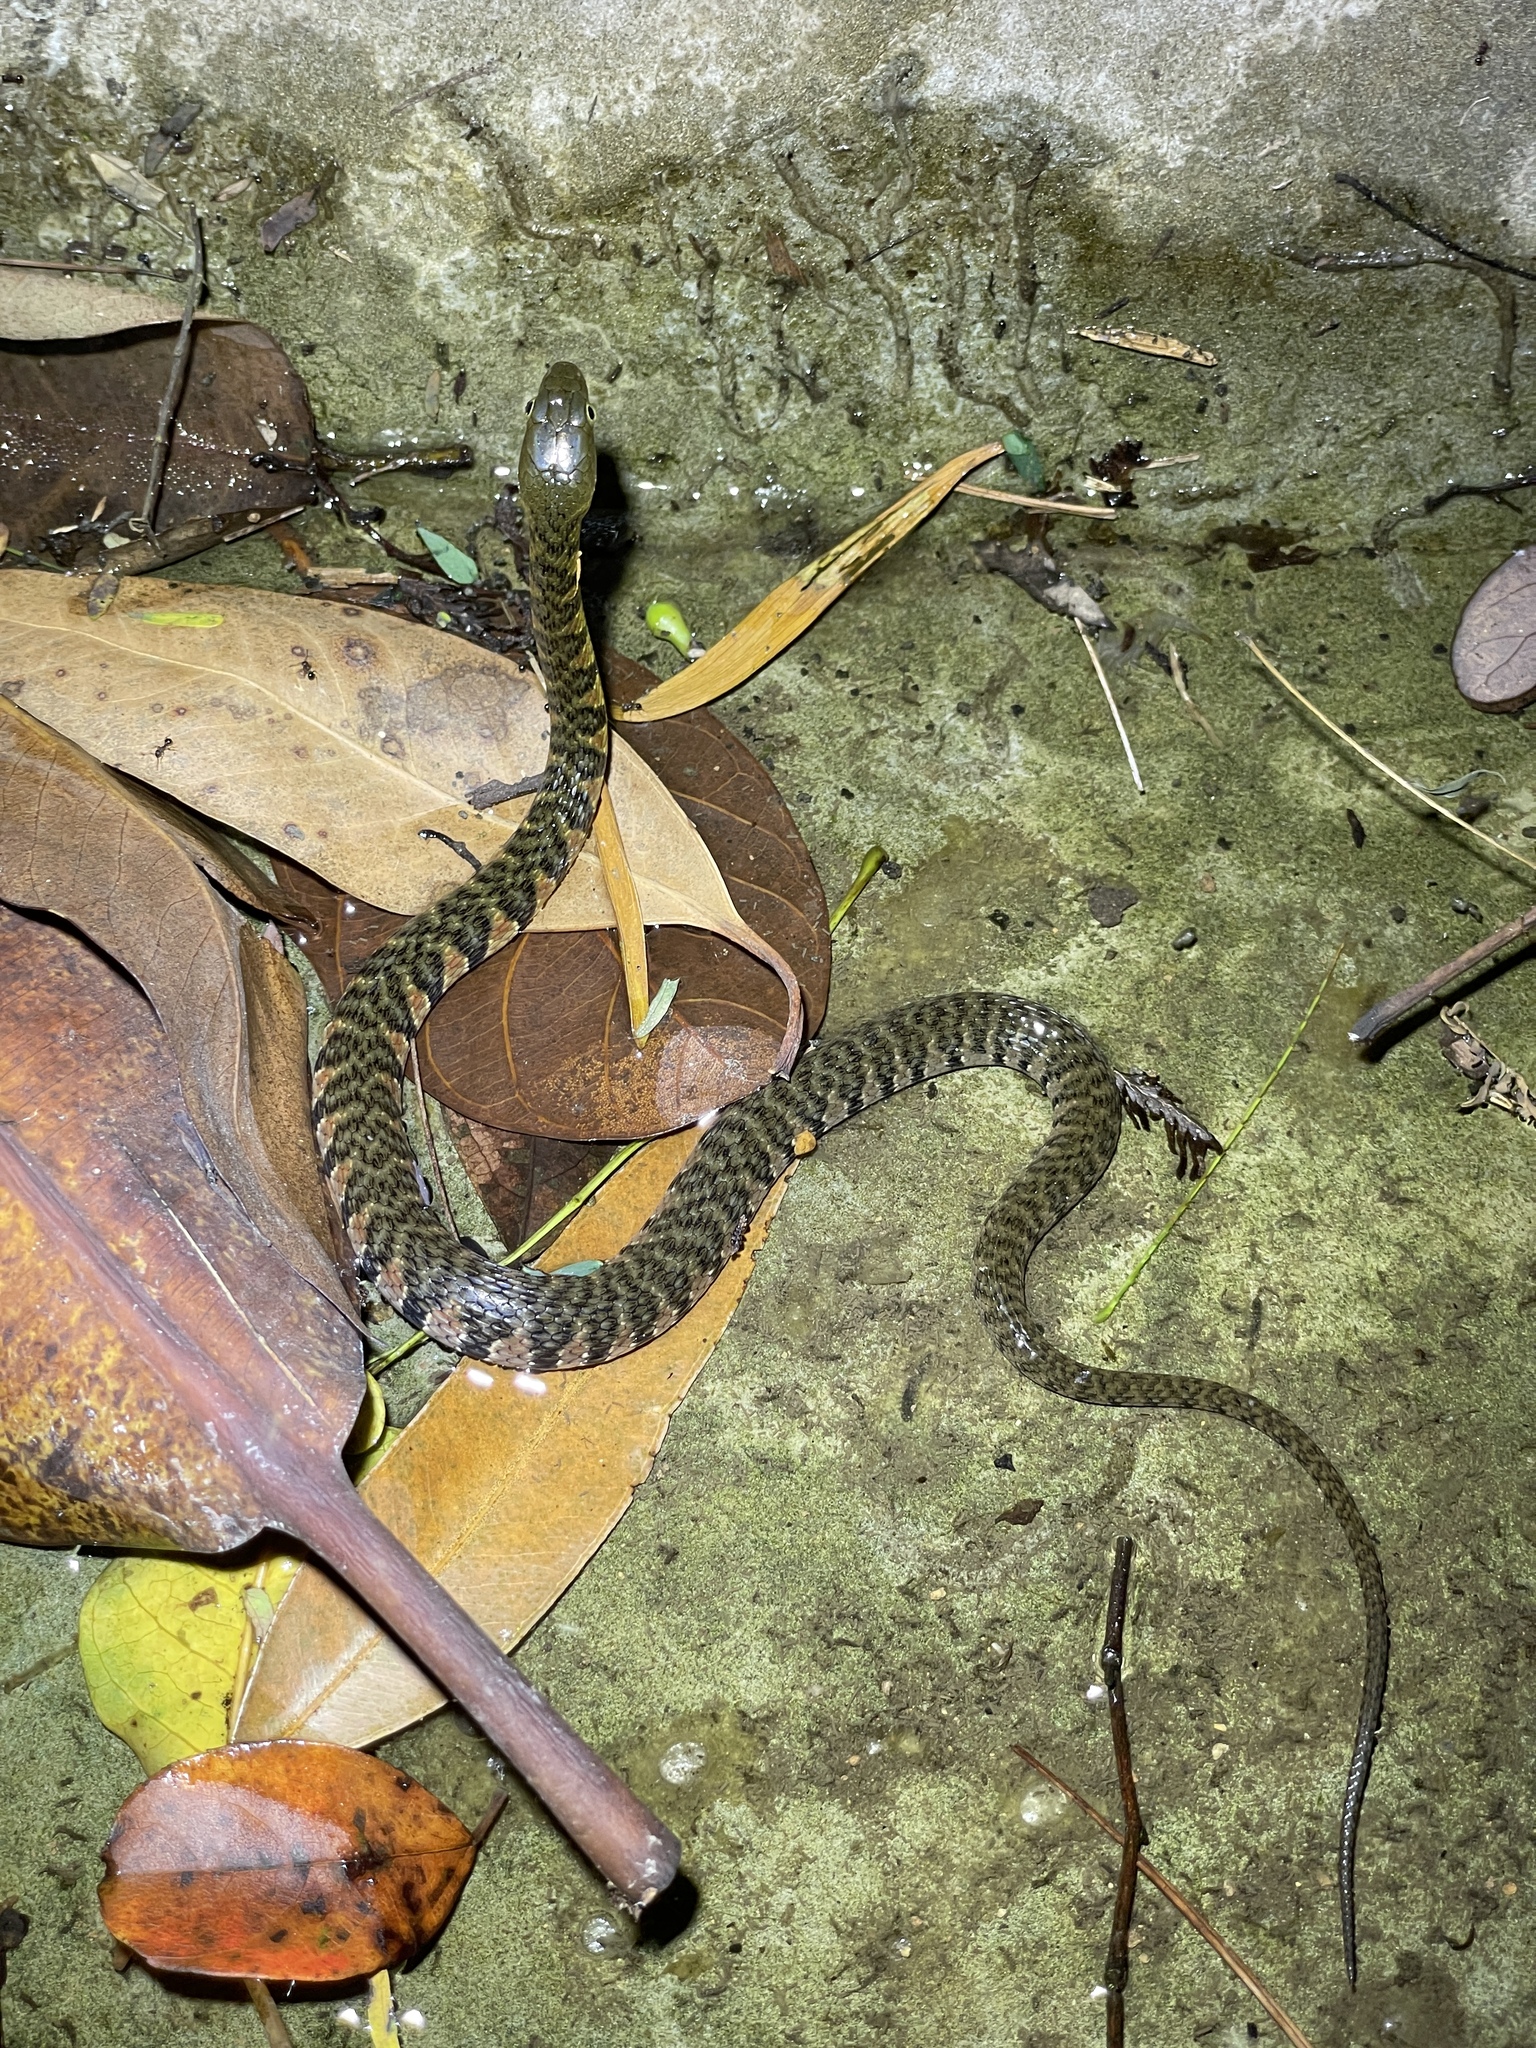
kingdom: Animalia
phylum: Chordata
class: Squamata
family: Colubridae
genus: Trimerodytes
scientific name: Trimerodytes percarinatus
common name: Eastern water snake
